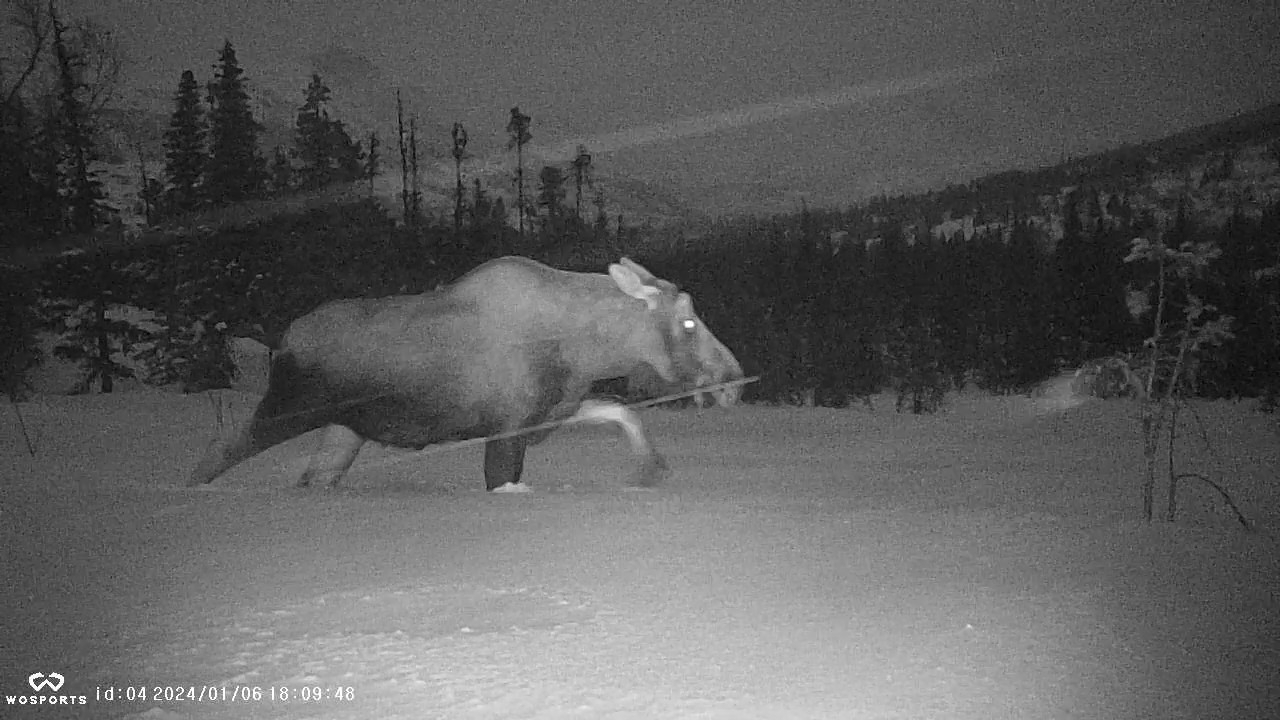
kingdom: Animalia
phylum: Chordata
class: Mammalia
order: Artiodactyla
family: Cervidae
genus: Alces
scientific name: Alces alces
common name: Moose
